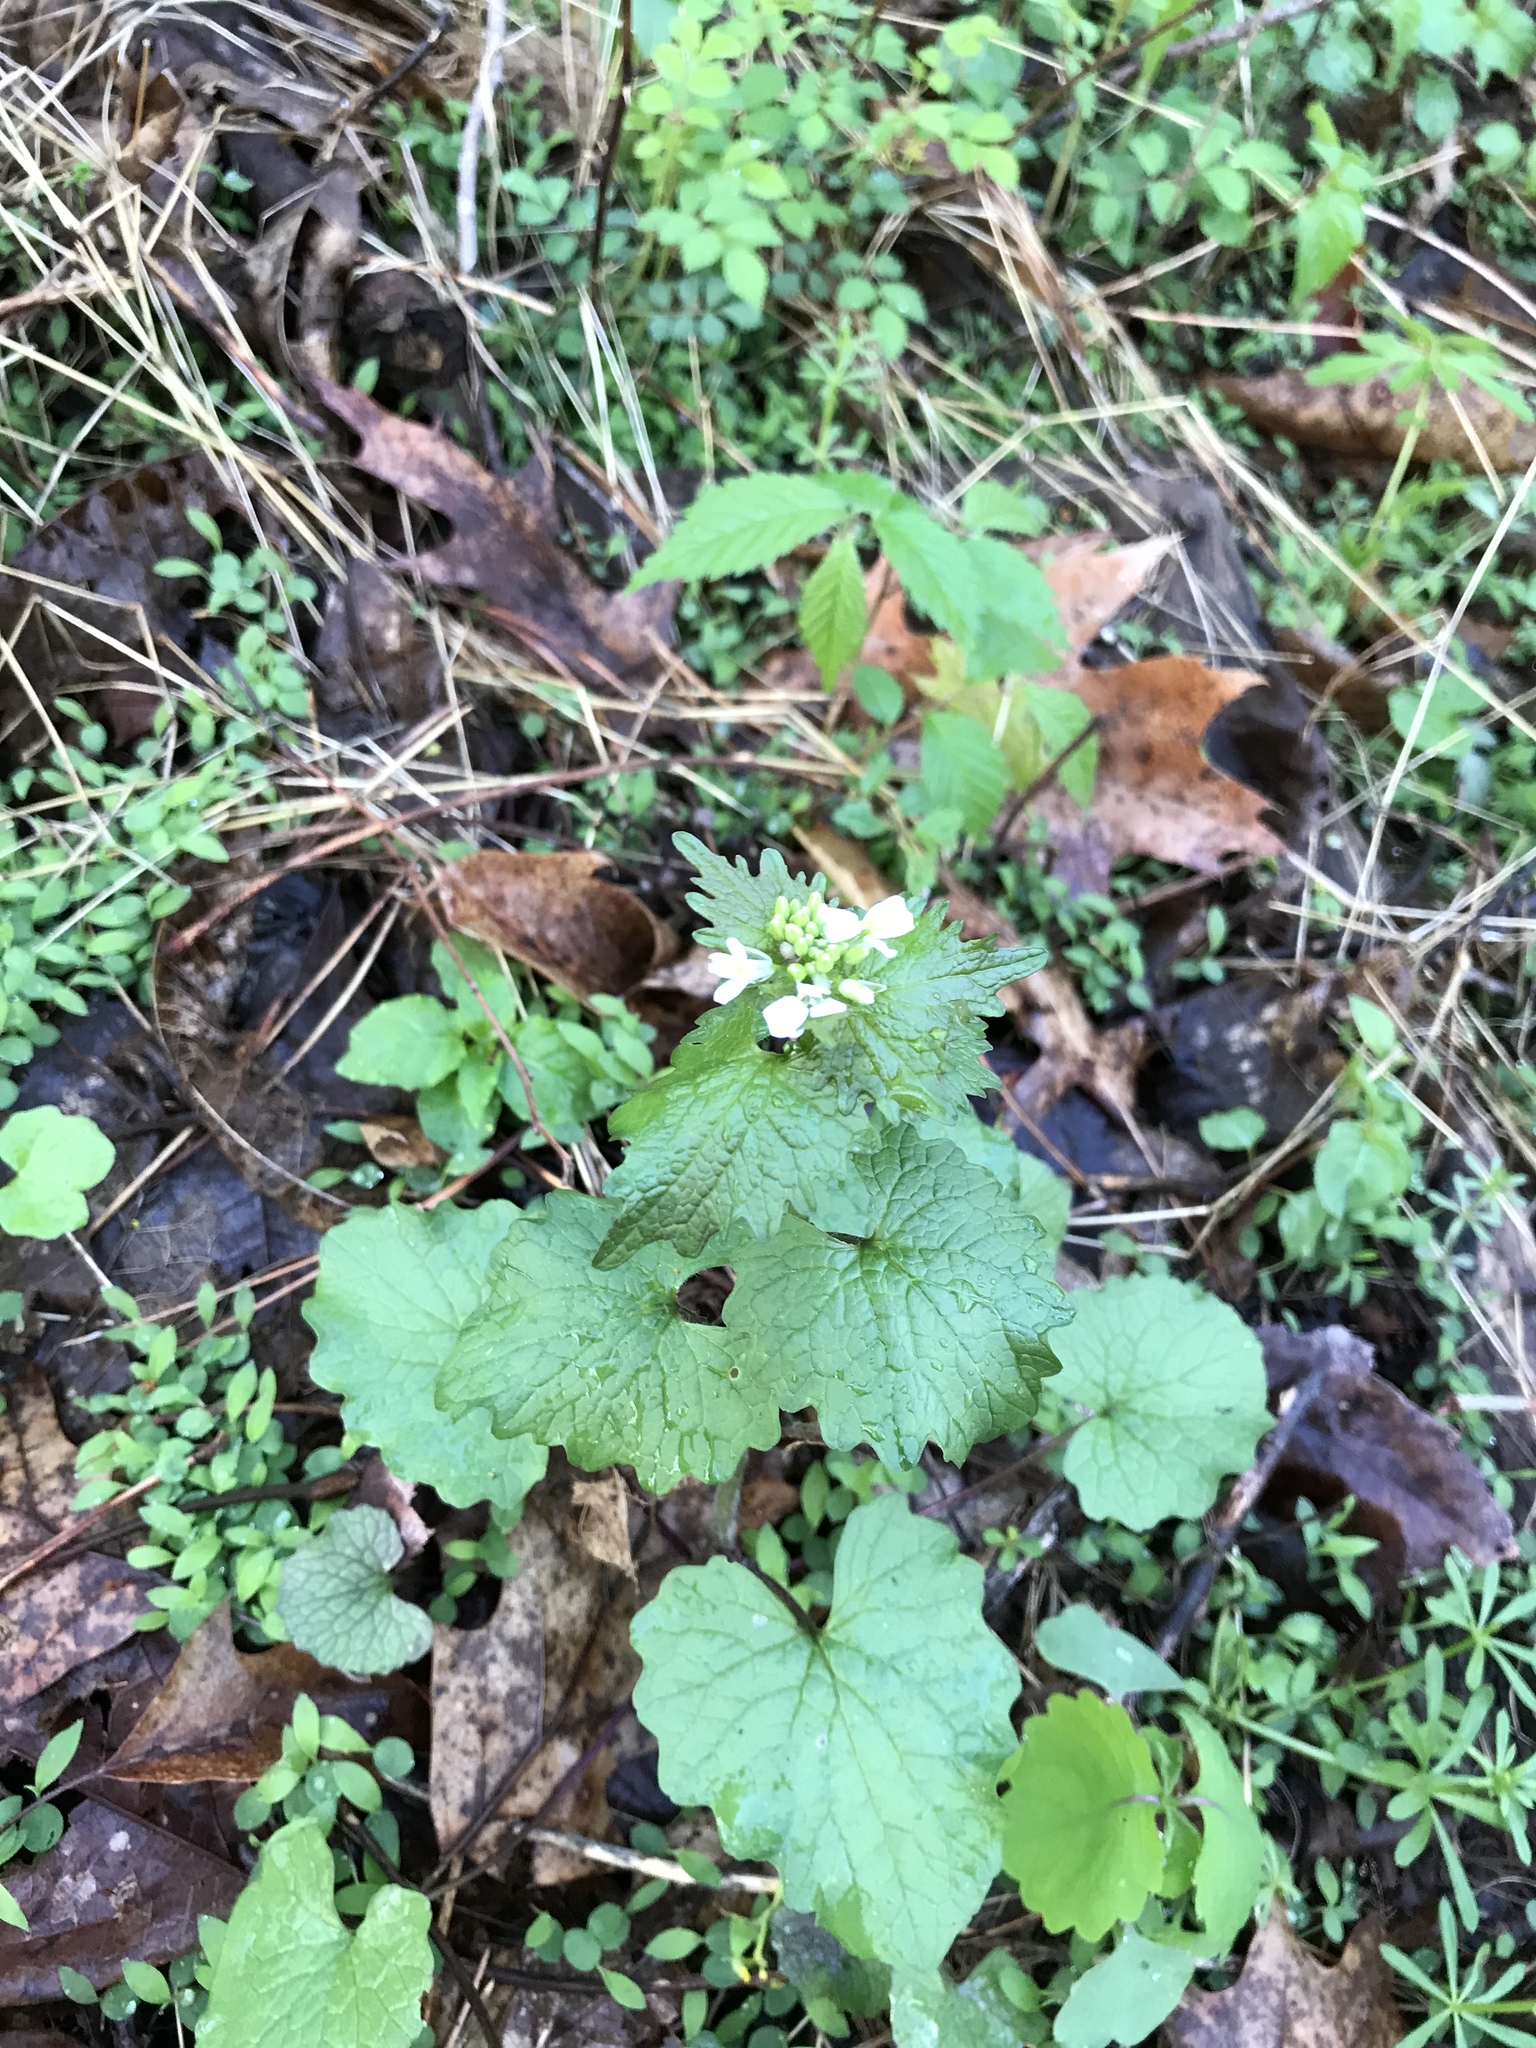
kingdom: Plantae
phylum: Tracheophyta
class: Magnoliopsida
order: Brassicales
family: Brassicaceae
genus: Alliaria
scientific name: Alliaria petiolata
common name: Garlic mustard
